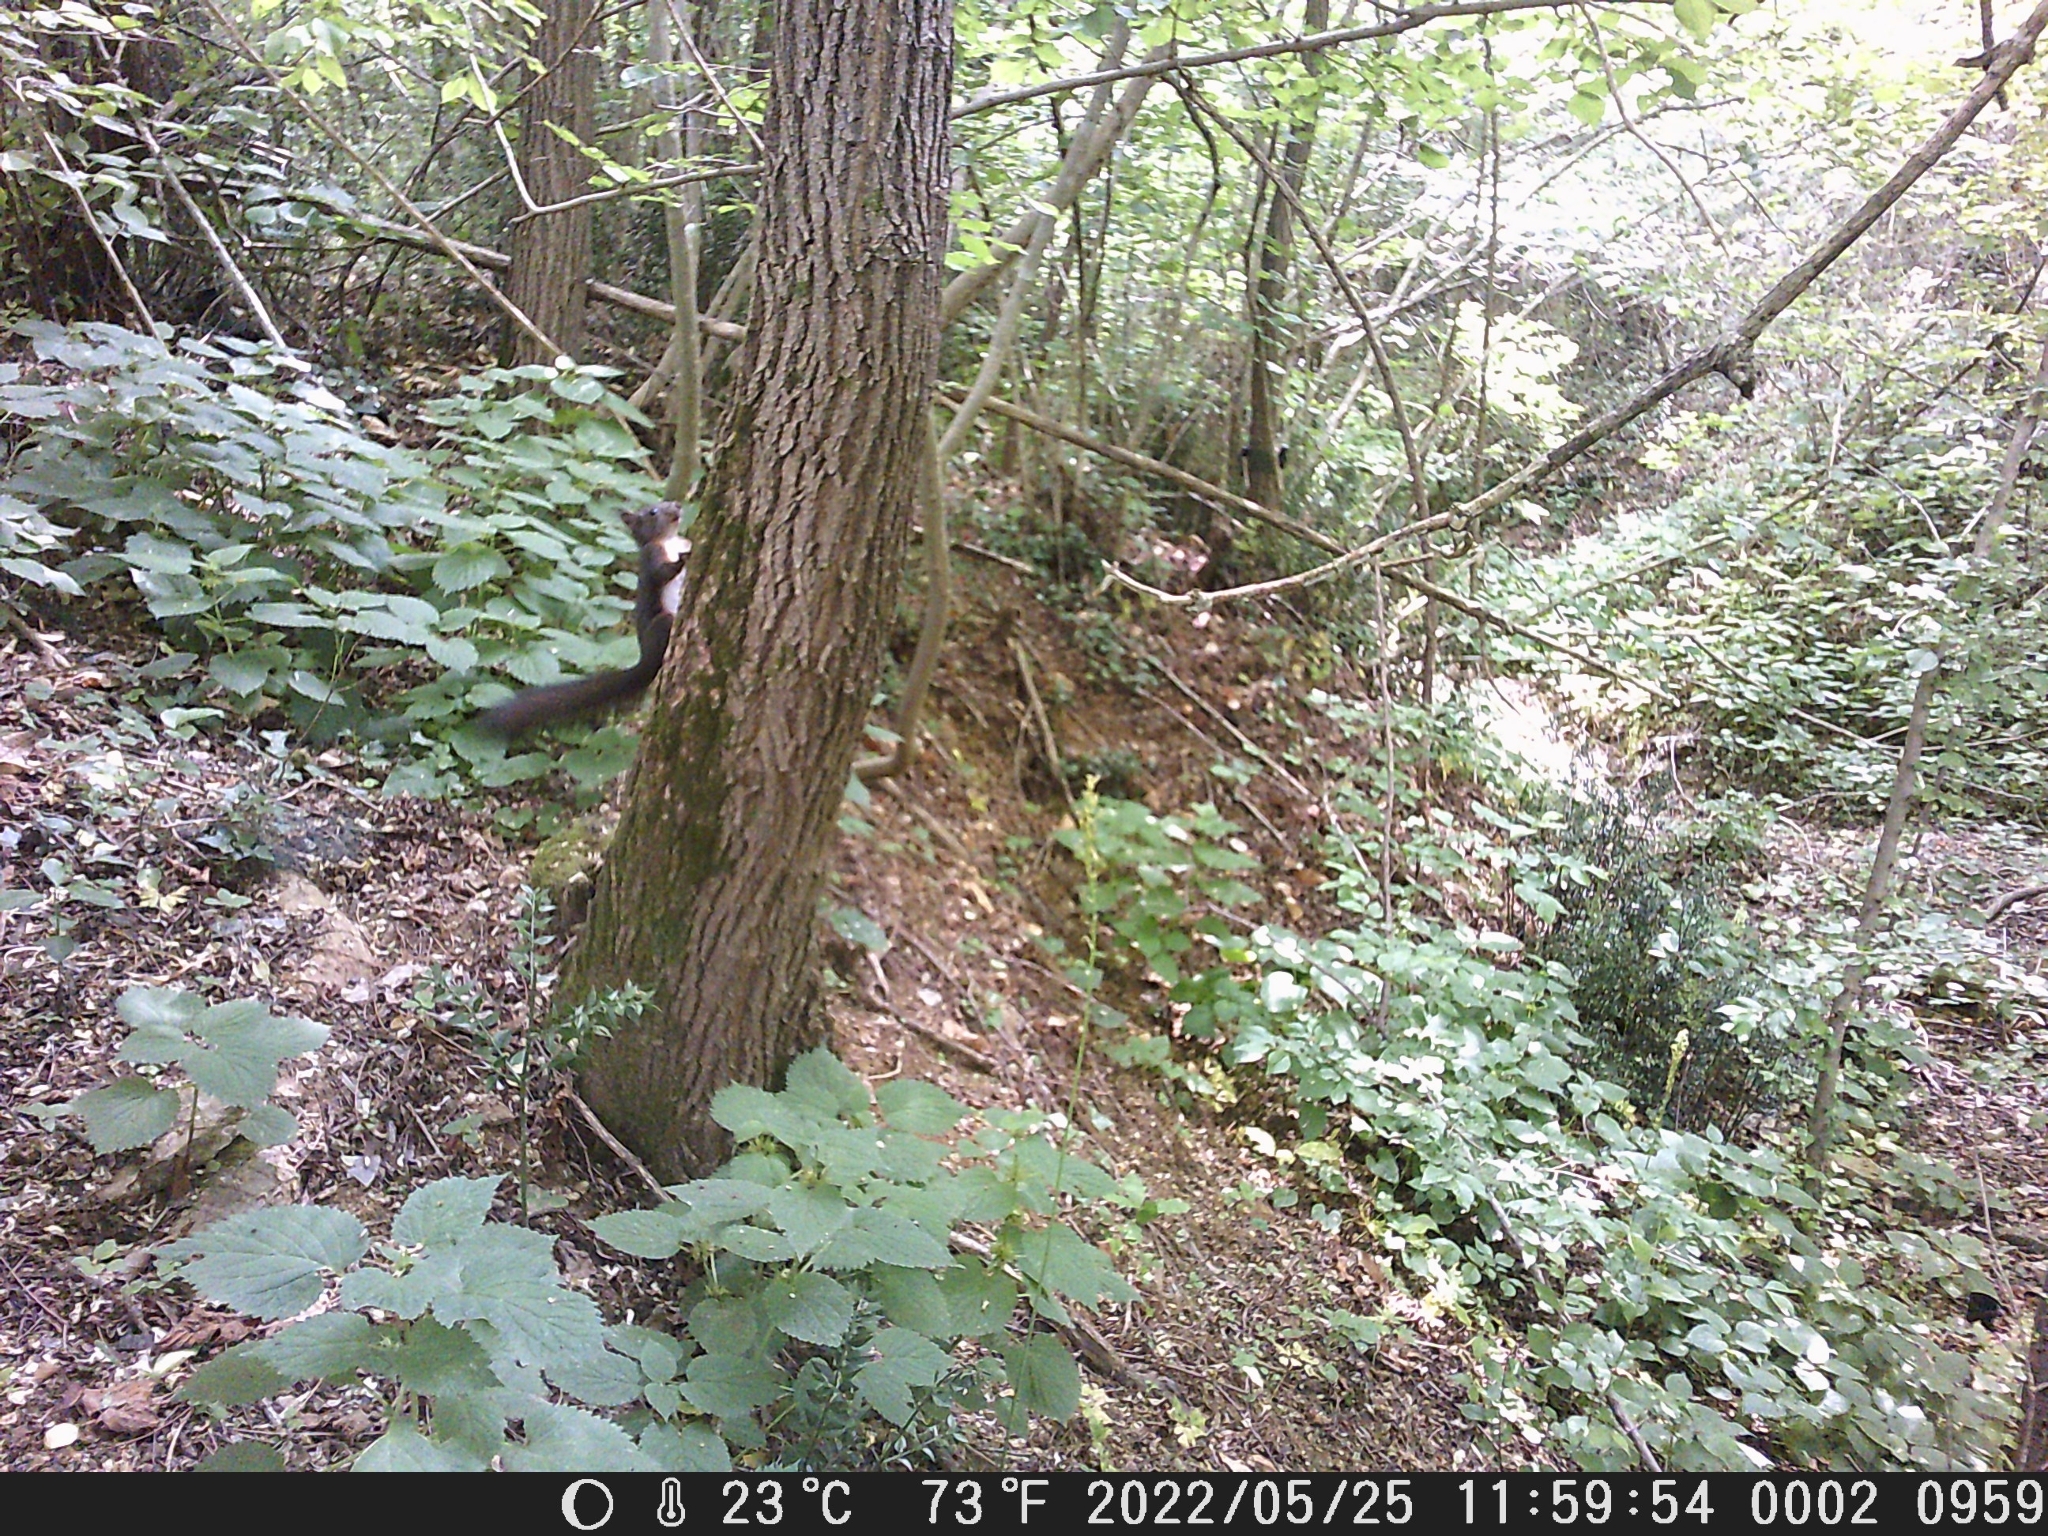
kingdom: Animalia
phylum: Chordata
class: Mammalia
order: Rodentia
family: Sciuridae
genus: Sciurus
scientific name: Sciurus vulgaris
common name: Eurasian red squirrel
